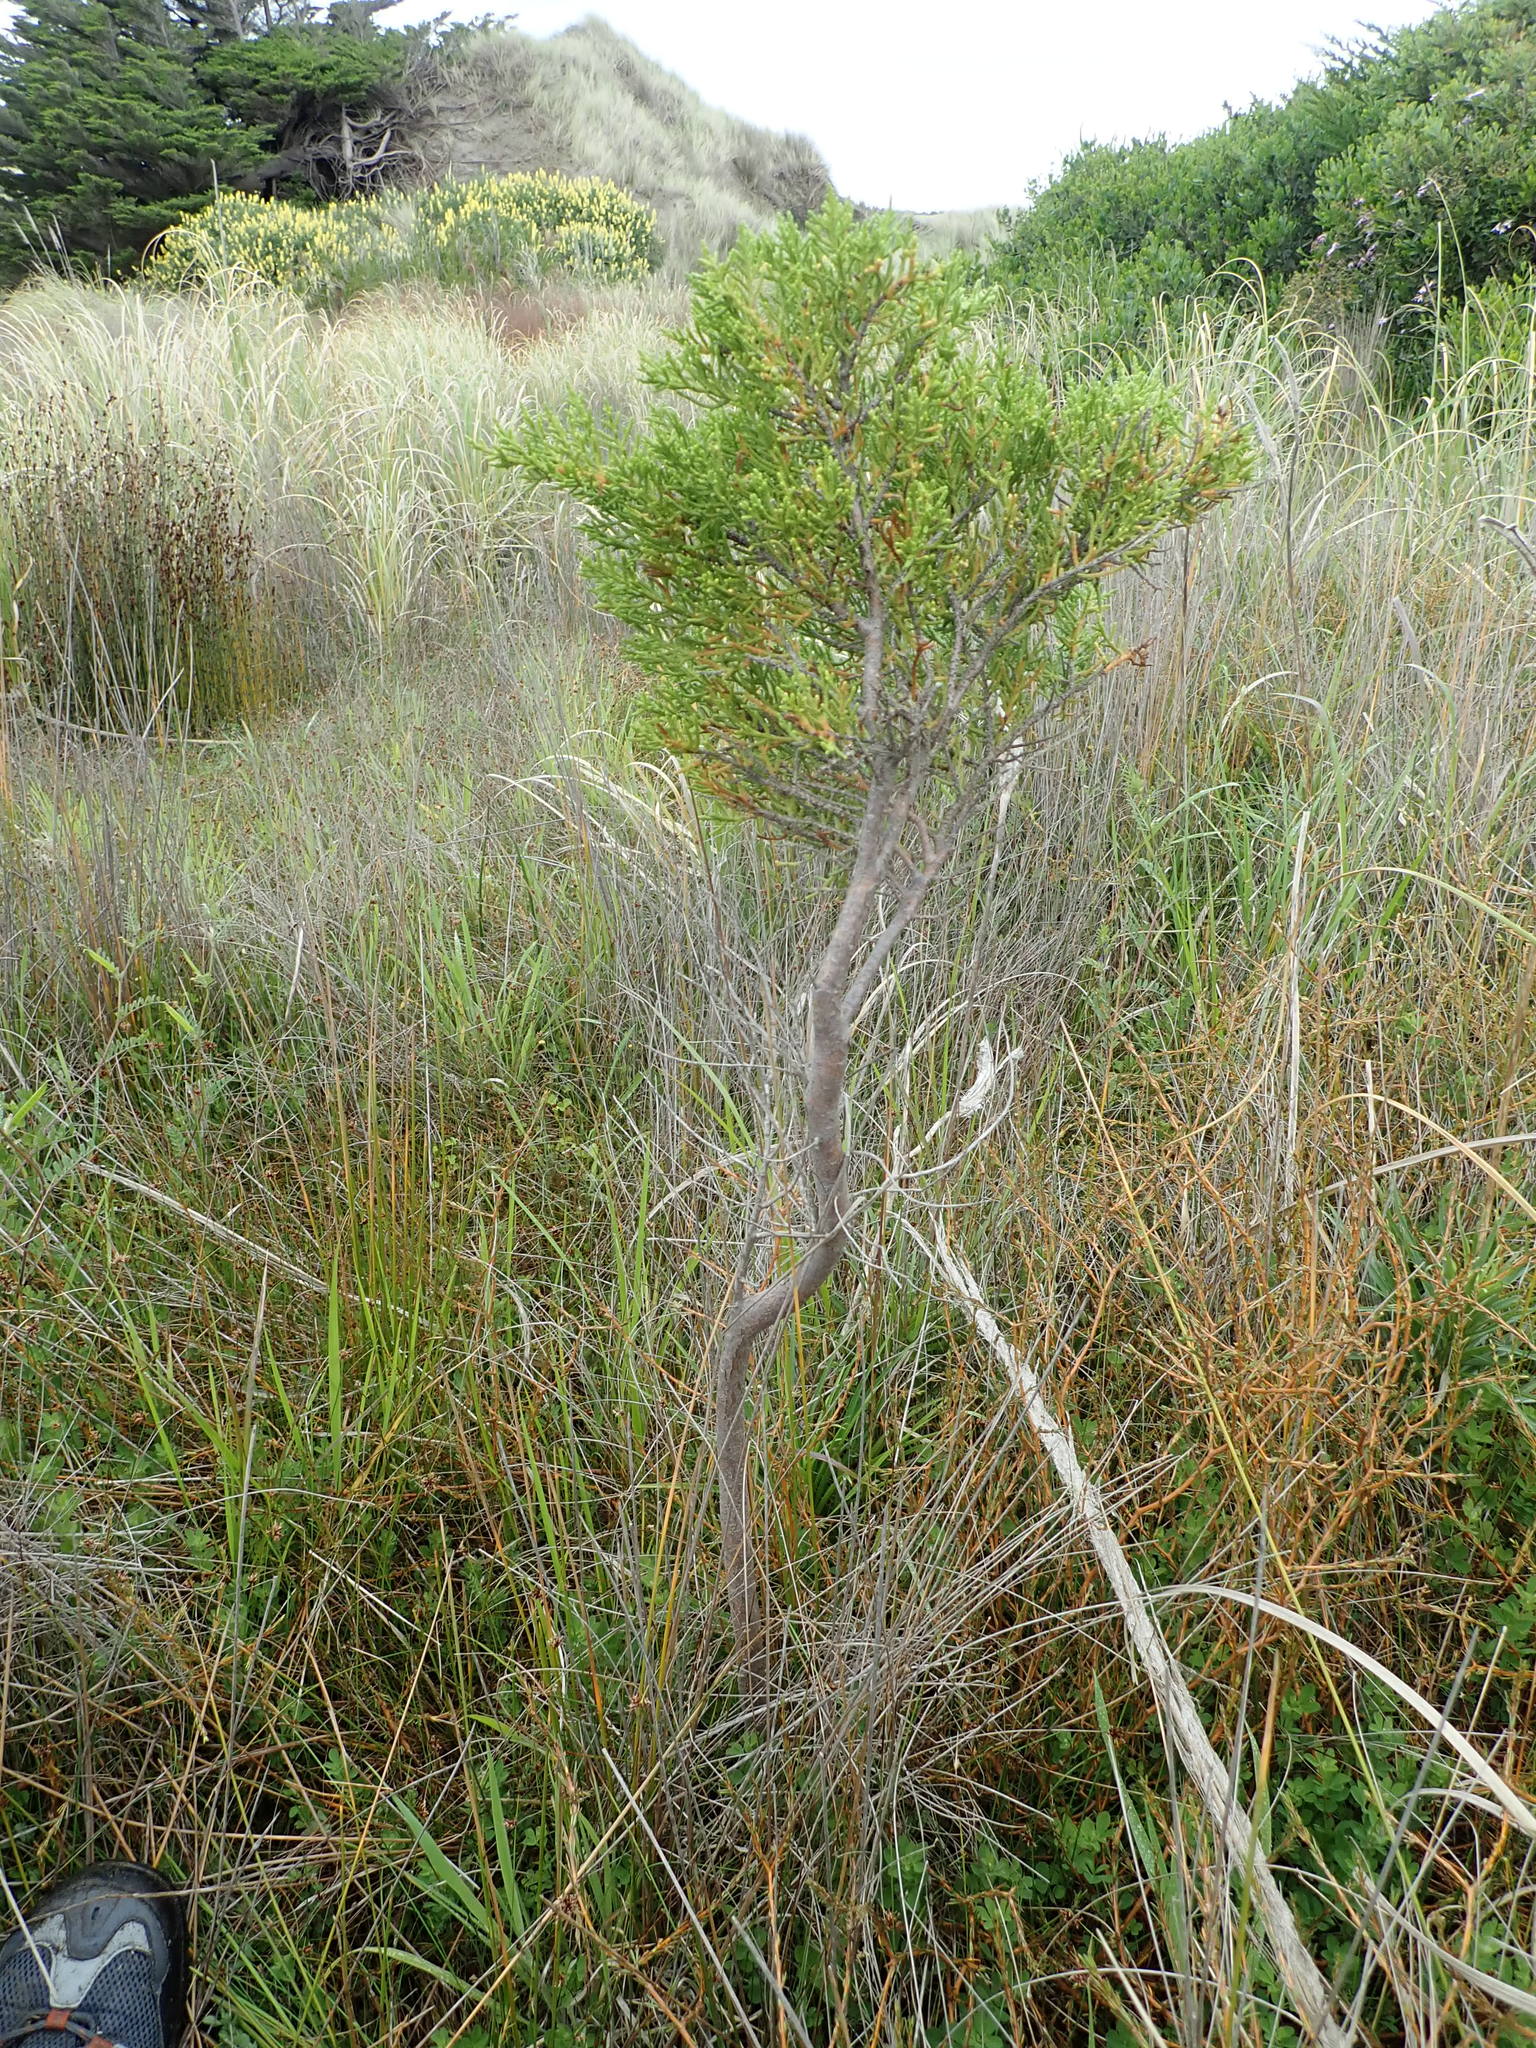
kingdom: Plantae
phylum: Tracheophyta
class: Pinopsida
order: Pinales
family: Cupressaceae
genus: Cupressus
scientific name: Cupressus macrocarpa
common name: Monterey cypress
